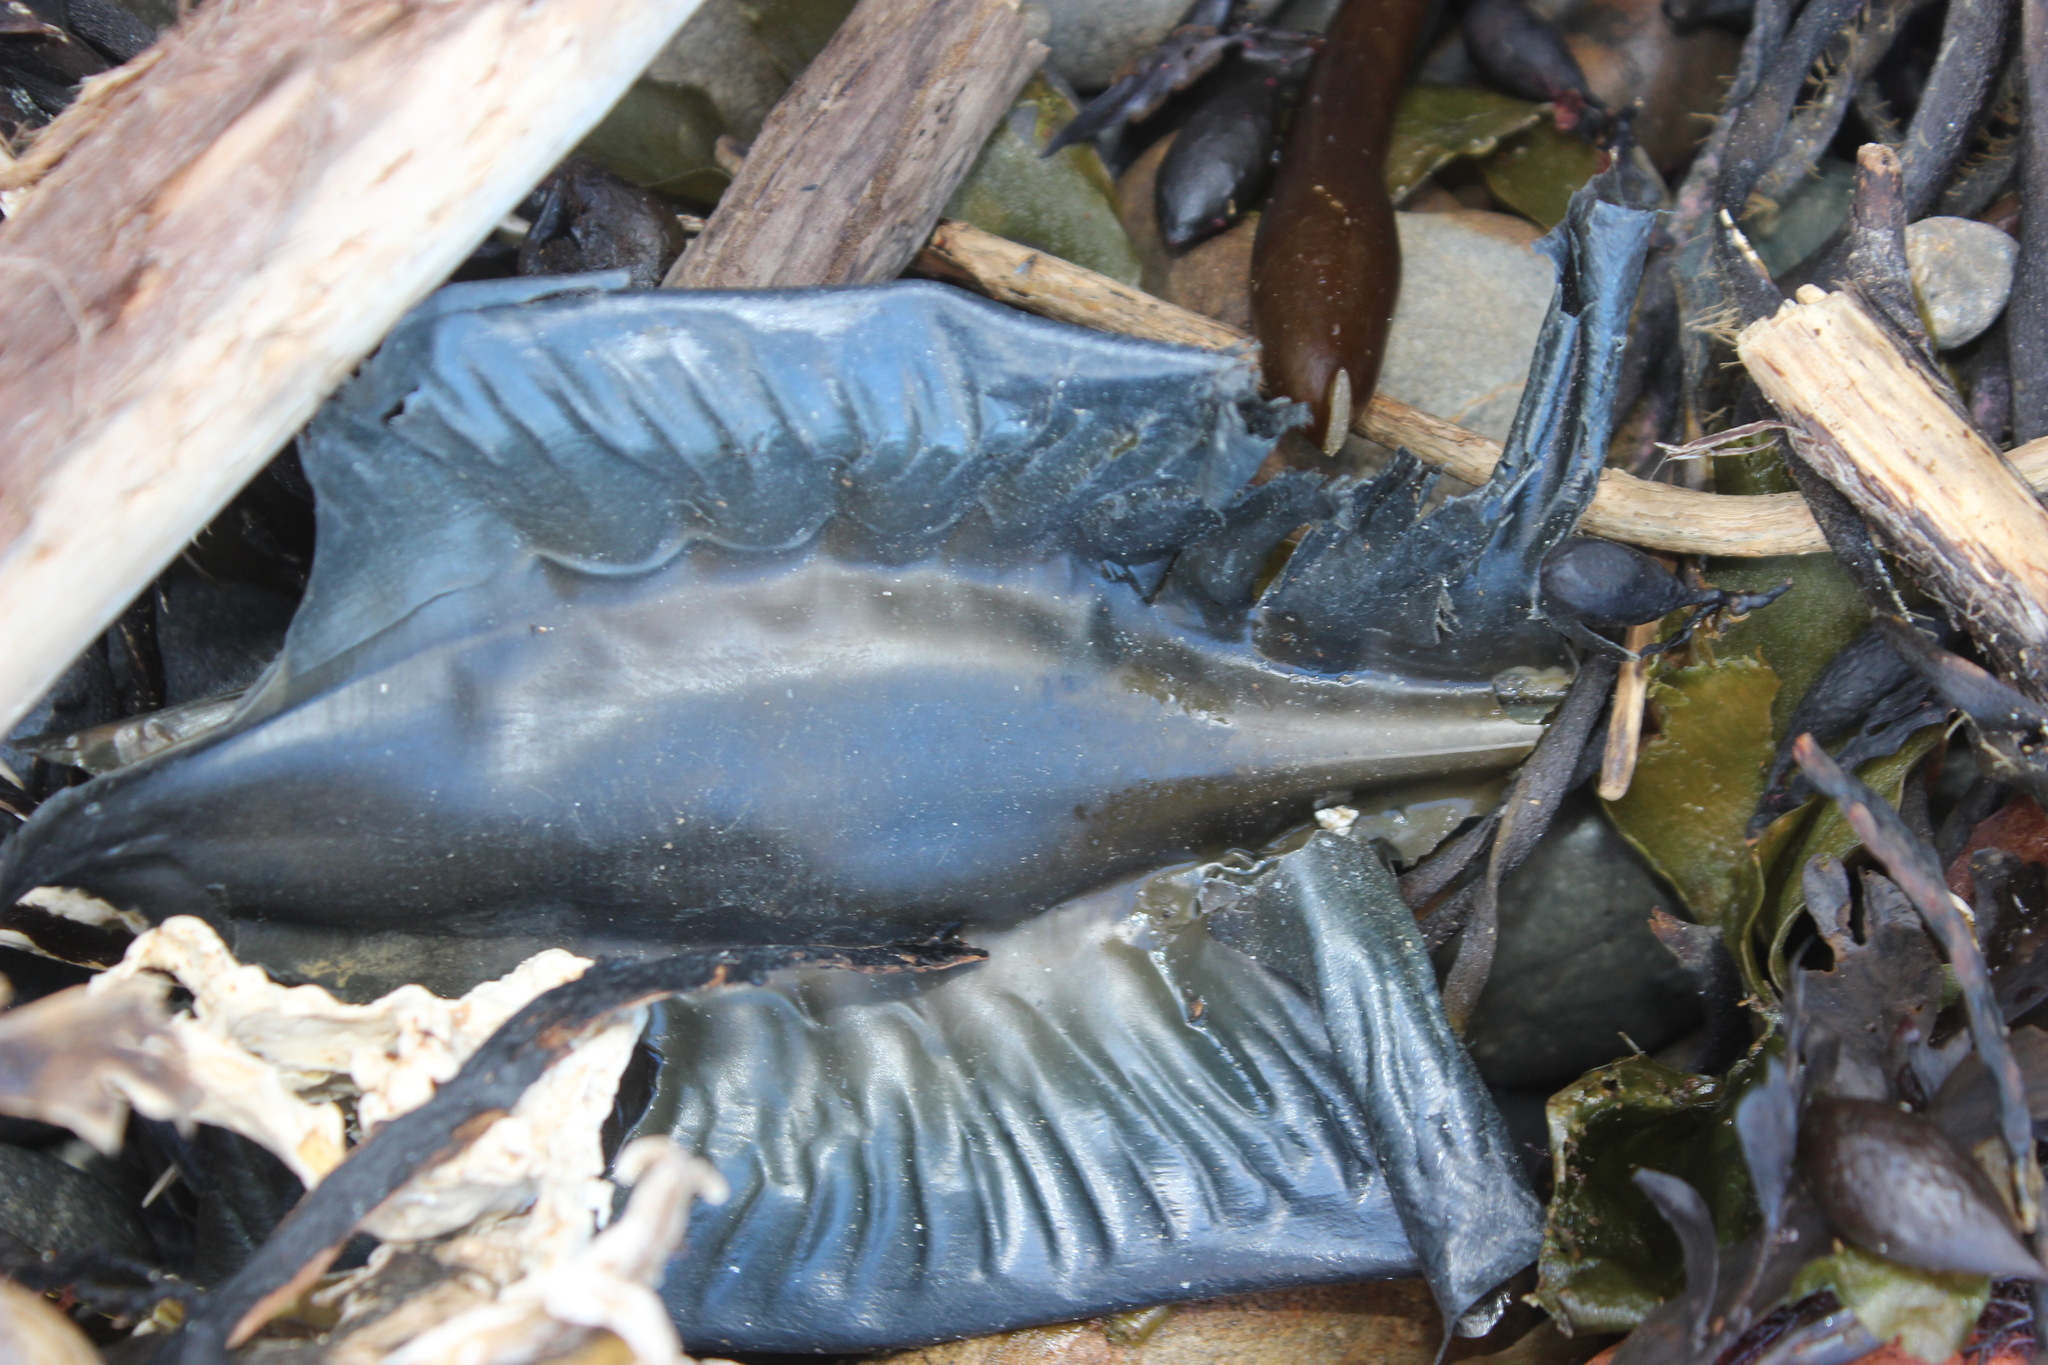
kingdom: Animalia
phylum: Chordata
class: Holocephali
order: Chimaeriformes
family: Callorhinchidae
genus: Callorhinchus
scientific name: Callorhinchus milii
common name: Elephant fish
